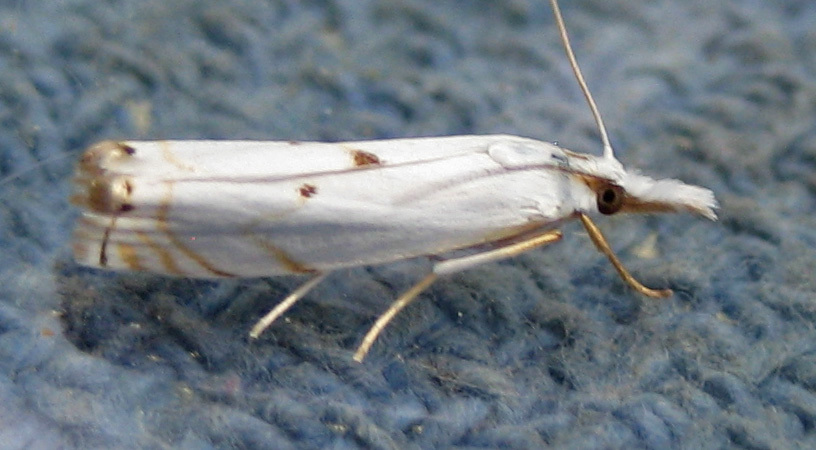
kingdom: Animalia
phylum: Arthropoda
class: Insecta
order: Lepidoptera
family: Crambidae
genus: Microcrambus
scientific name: Microcrambus biguttellus
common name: Gold-stripe grass-veneer moth
